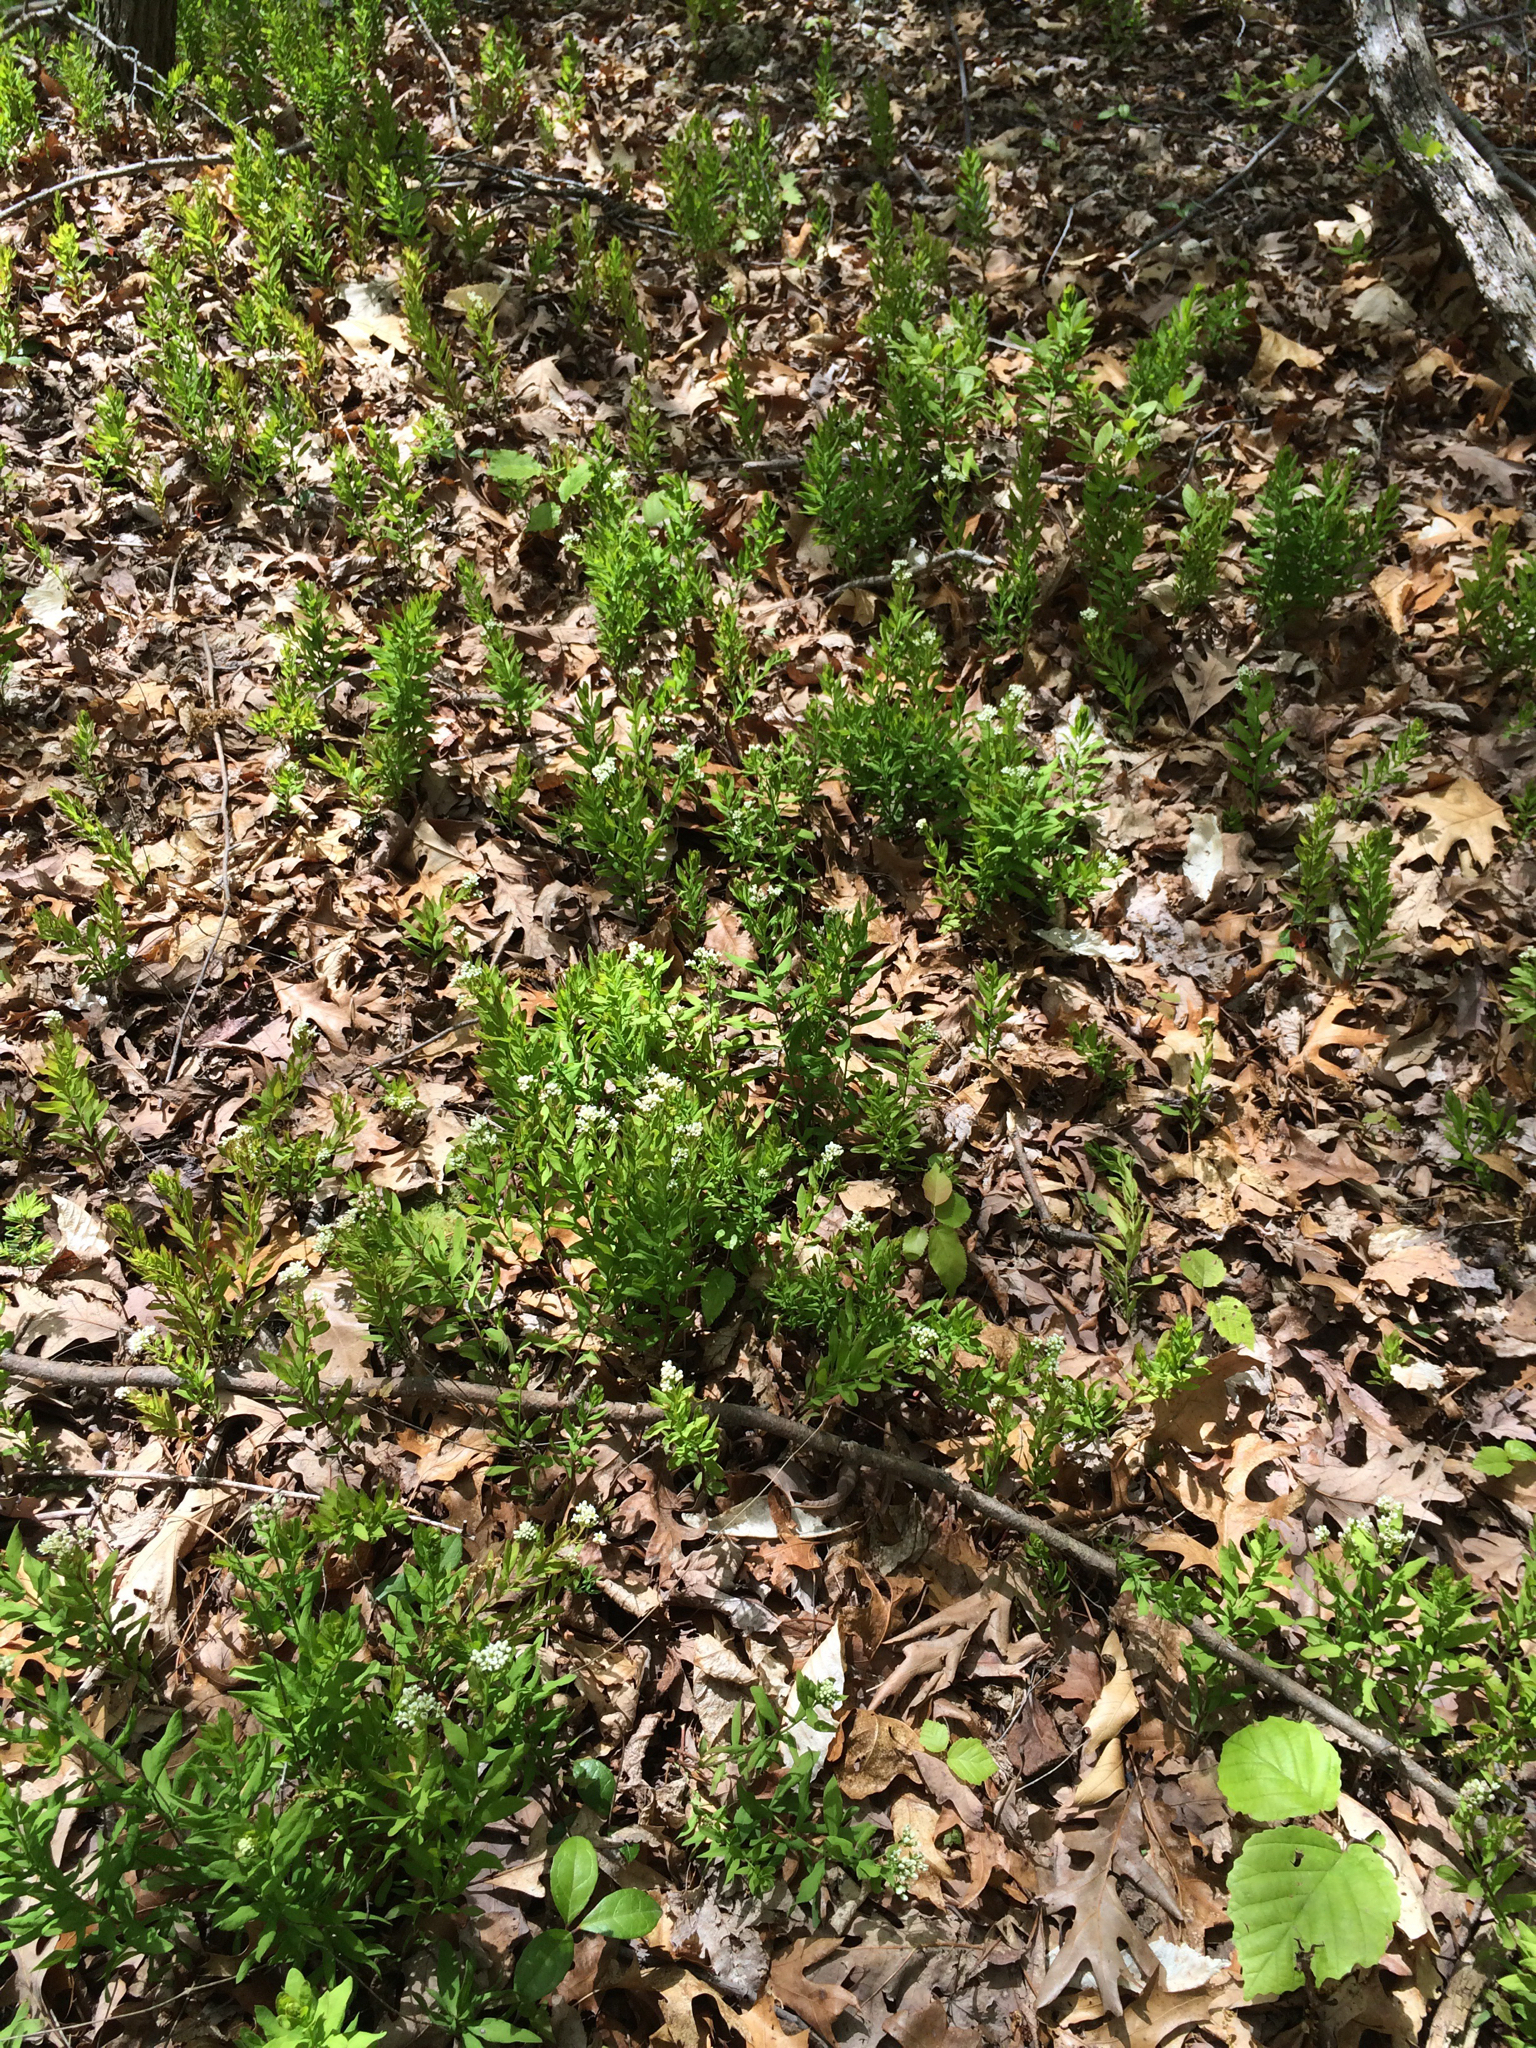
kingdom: Plantae
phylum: Tracheophyta
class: Magnoliopsida
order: Santalales
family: Comandraceae
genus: Comandra
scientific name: Comandra umbellata
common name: Bastard toadflax
